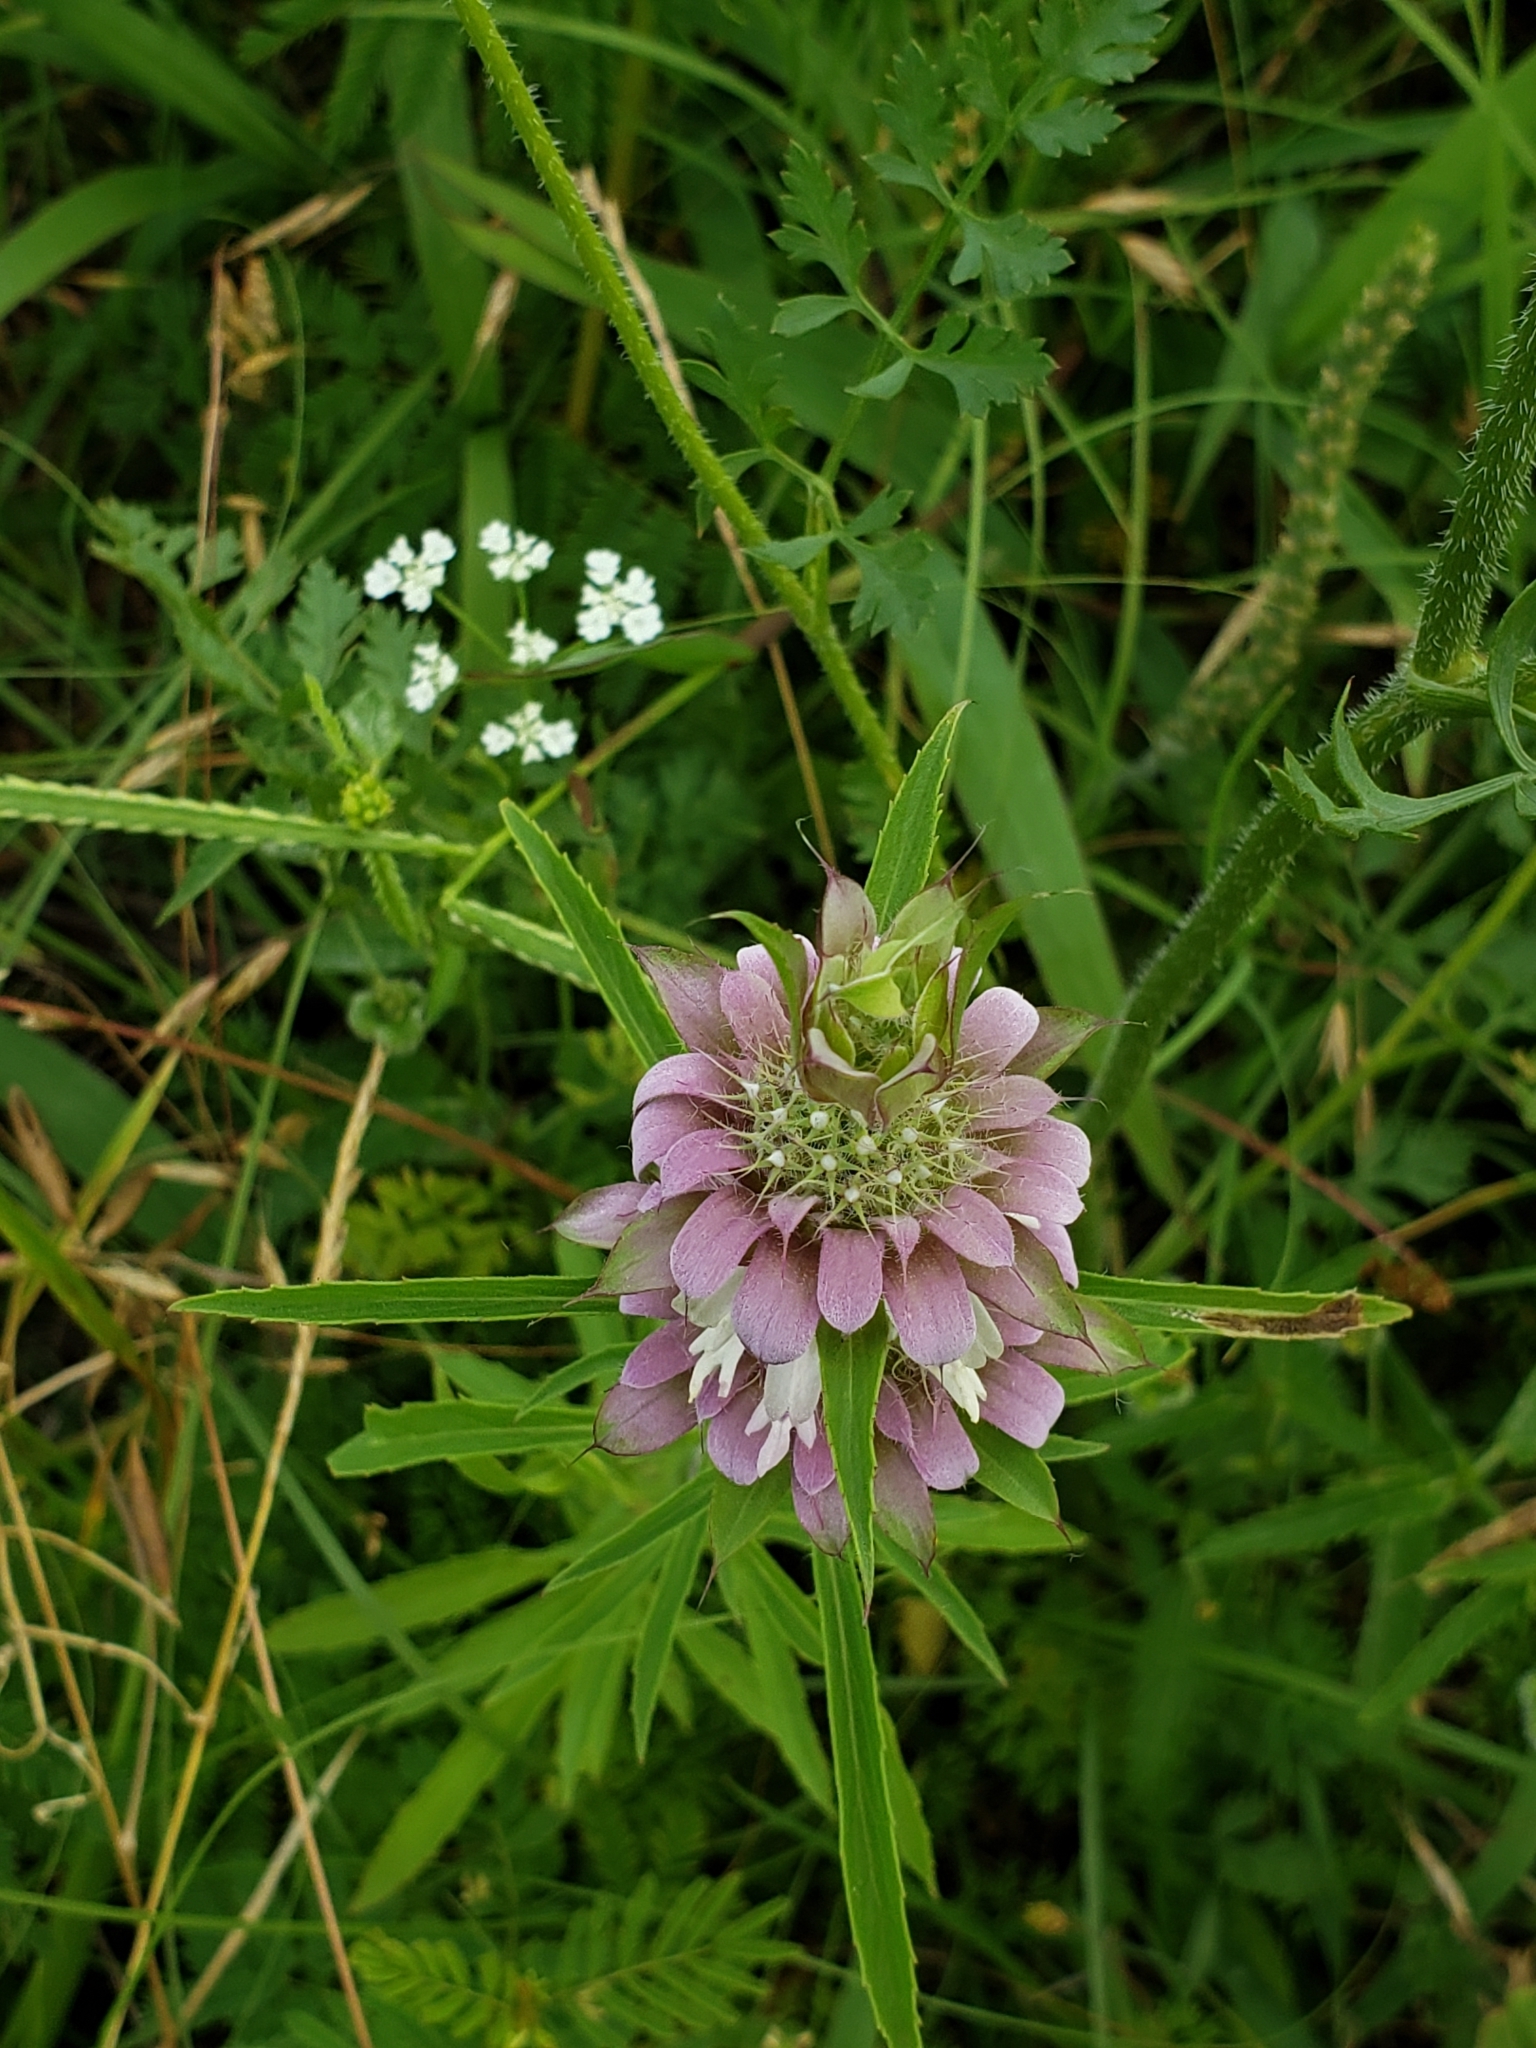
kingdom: Plantae
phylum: Tracheophyta
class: Magnoliopsida
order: Lamiales
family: Lamiaceae
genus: Monarda
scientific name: Monarda citriodora
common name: Lemon beebalm
